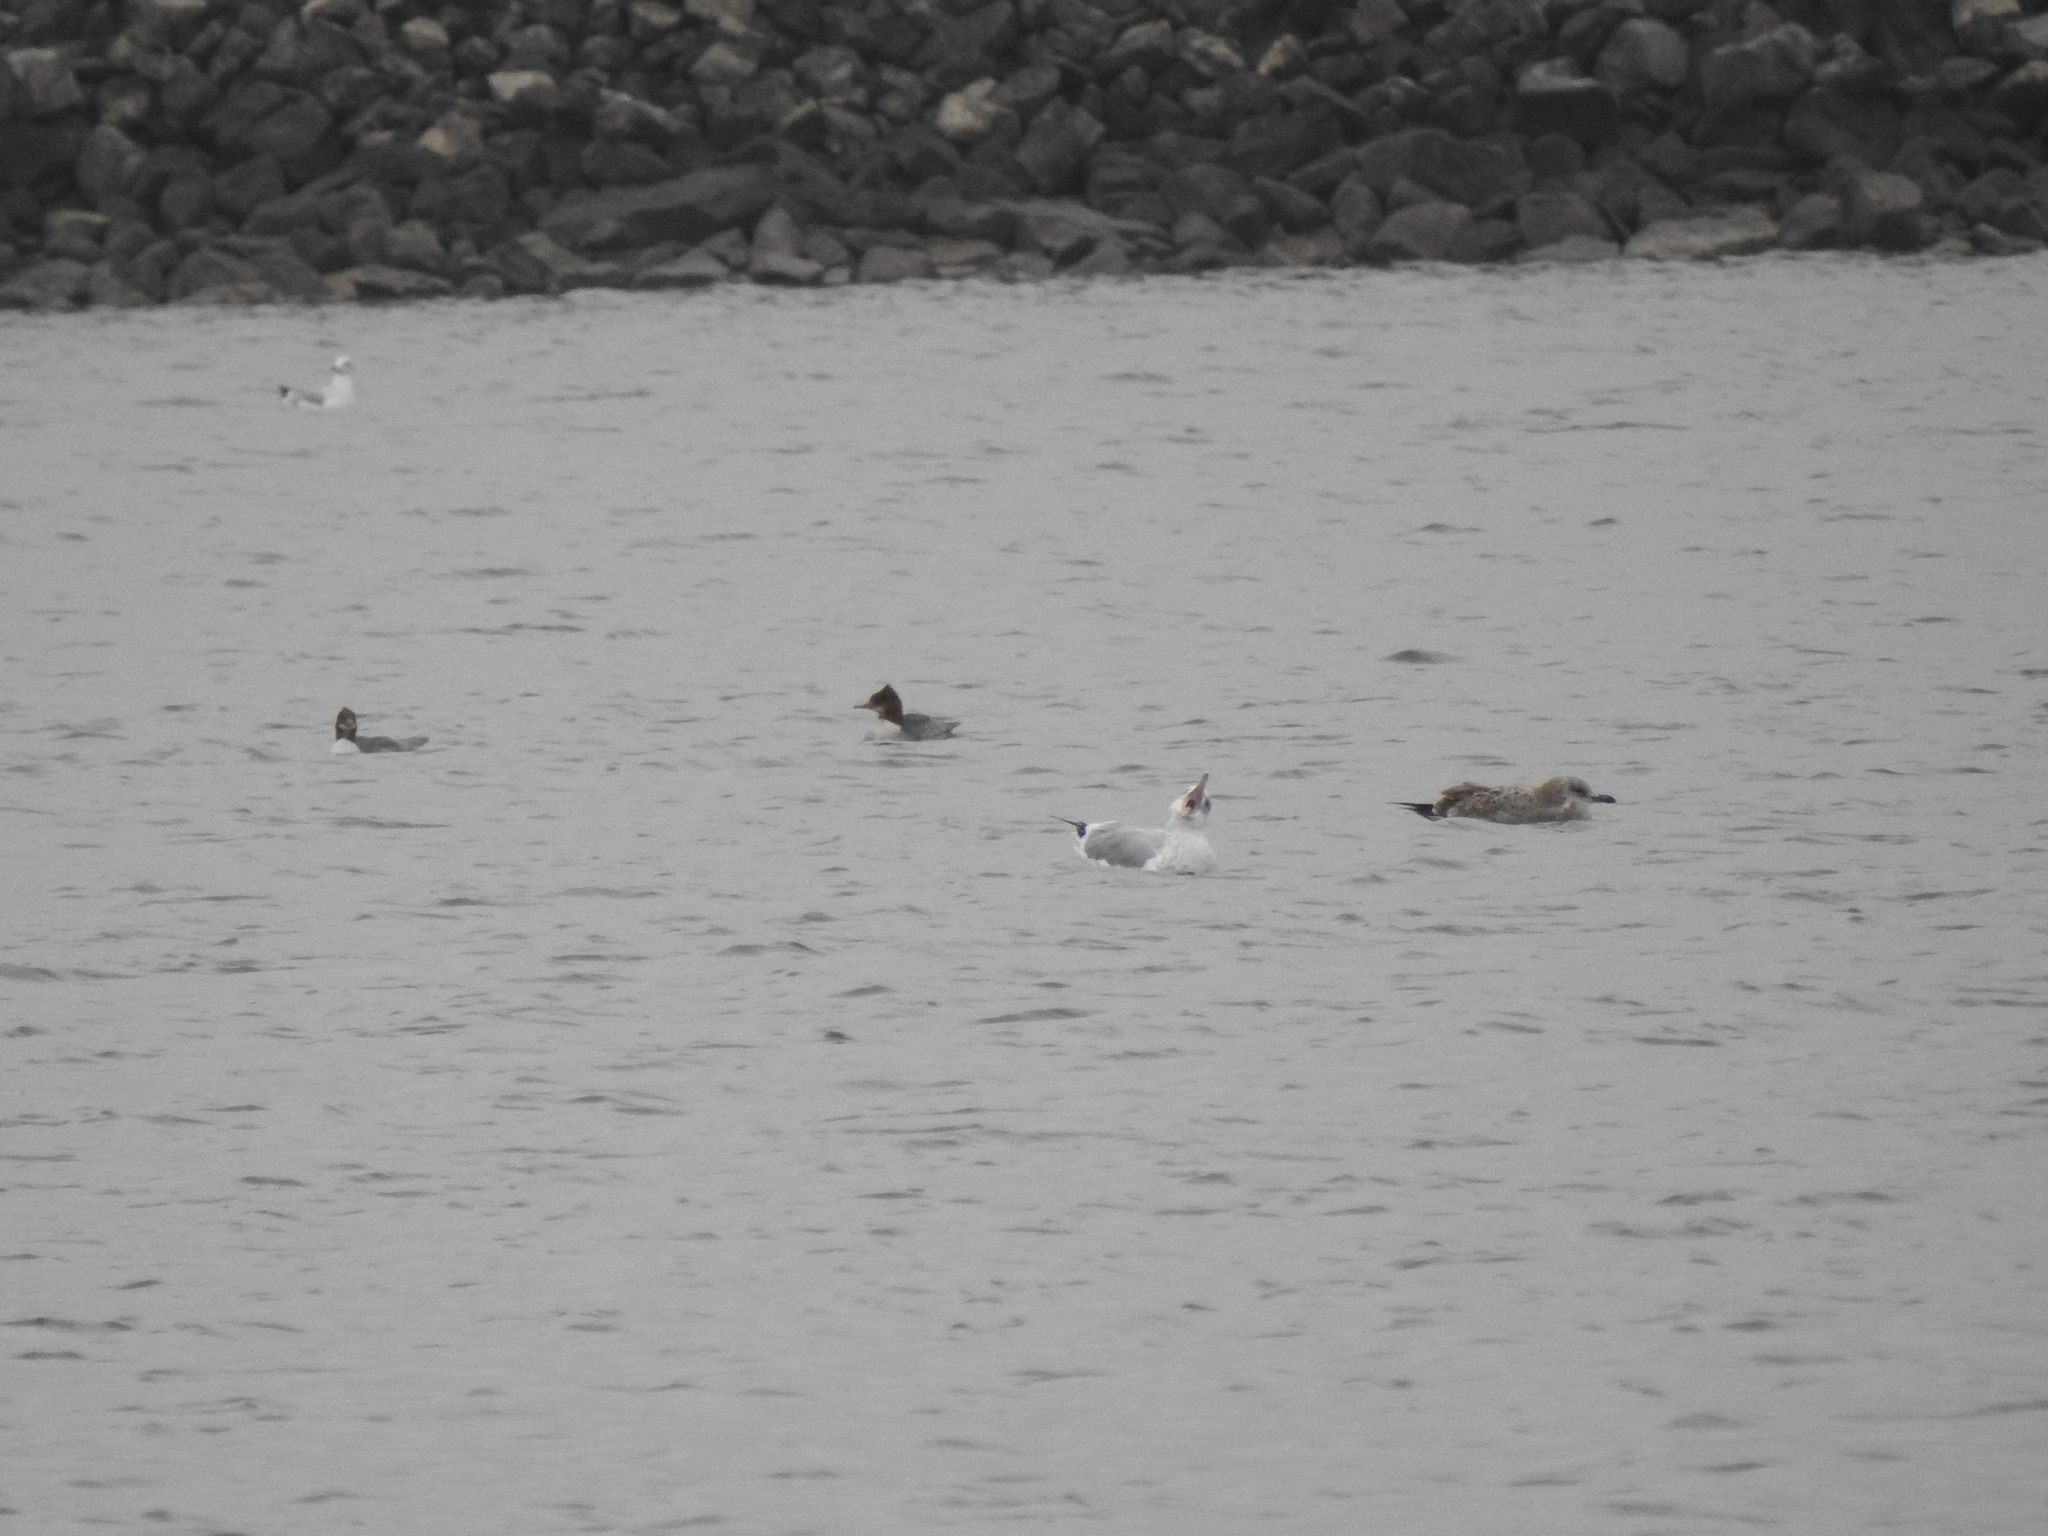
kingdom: Animalia
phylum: Chordata
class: Aves
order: Anseriformes
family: Anatidae
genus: Mergus
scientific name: Mergus merganser
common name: Common merganser
